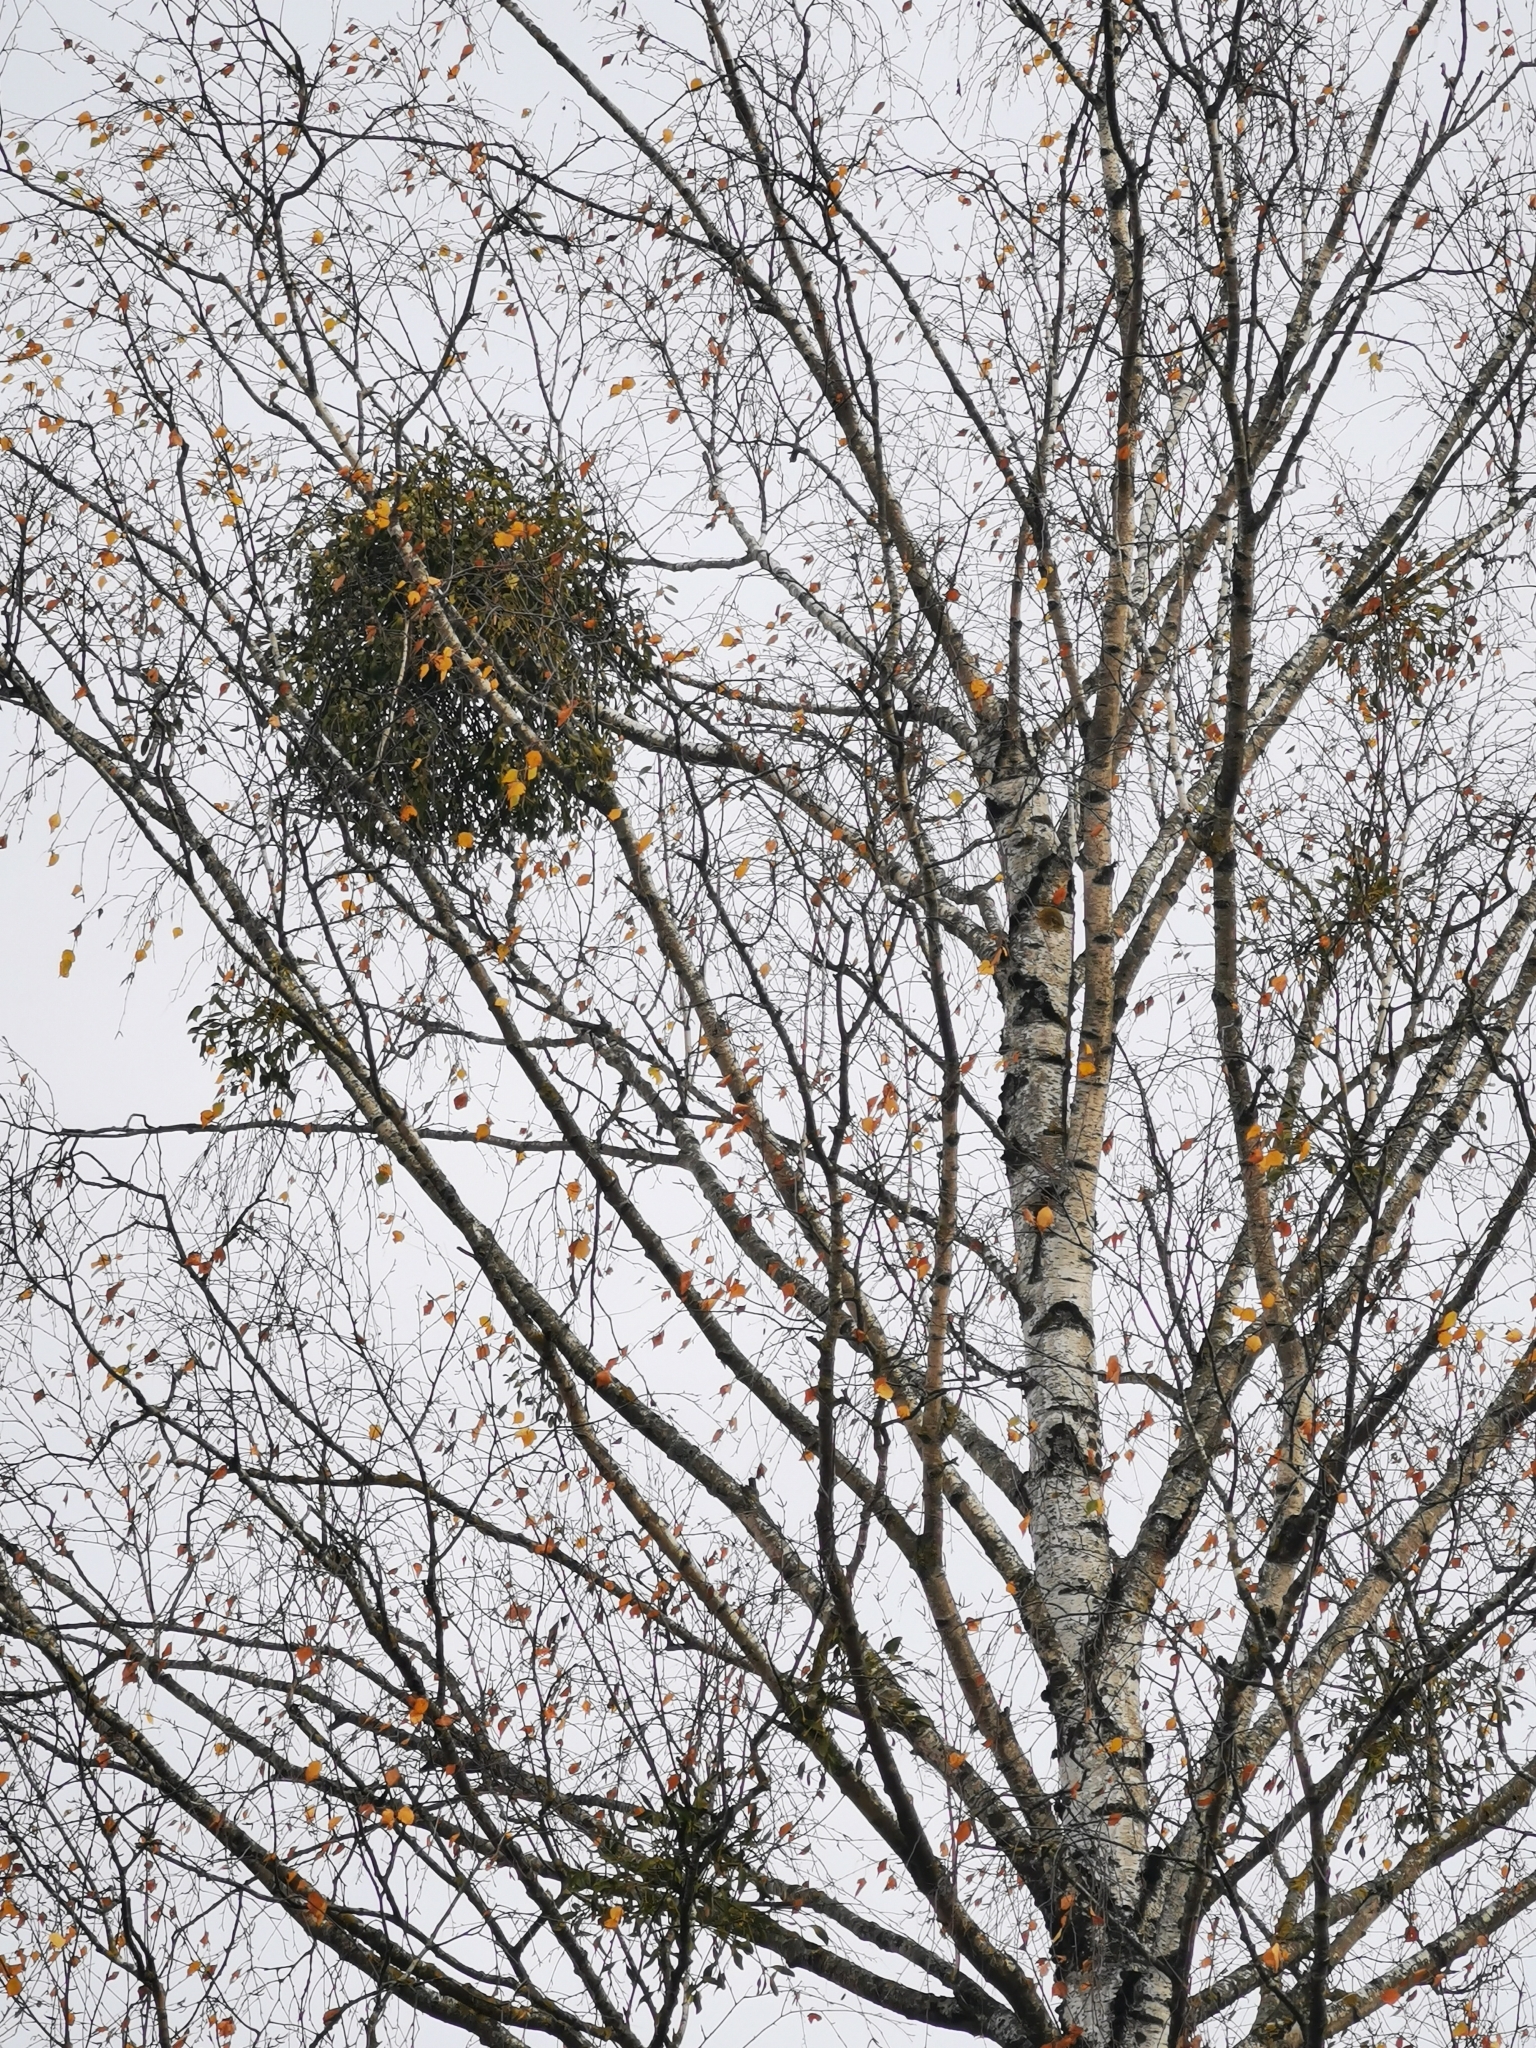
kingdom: Plantae
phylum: Tracheophyta
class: Magnoliopsida
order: Santalales
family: Viscaceae
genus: Viscum
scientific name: Viscum album
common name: Mistletoe
